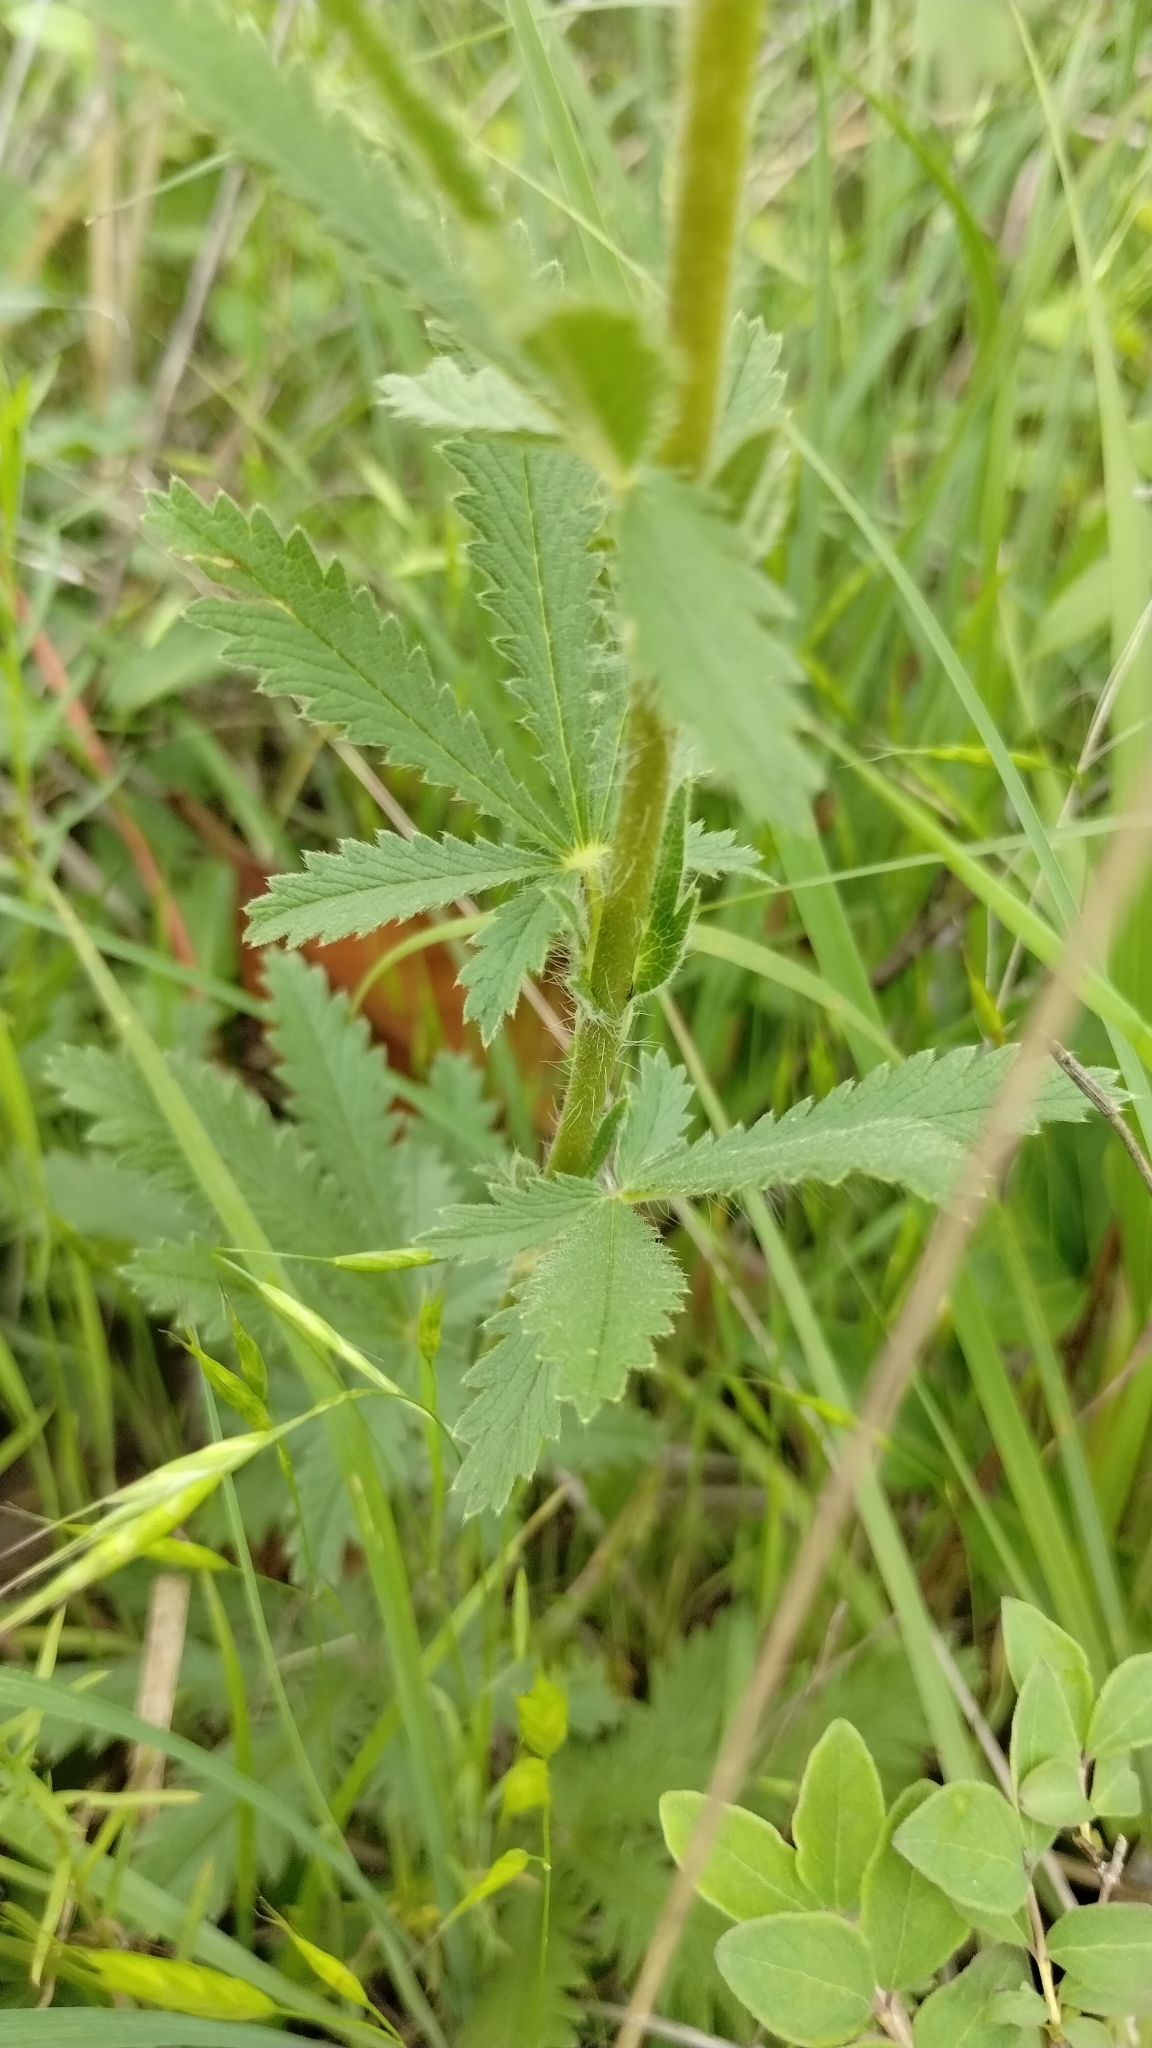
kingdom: Plantae
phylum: Tracheophyta
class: Magnoliopsida
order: Rosales
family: Rosaceae
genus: Potentilla
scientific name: Potentilla recta
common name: Sulphur cinquefoil
